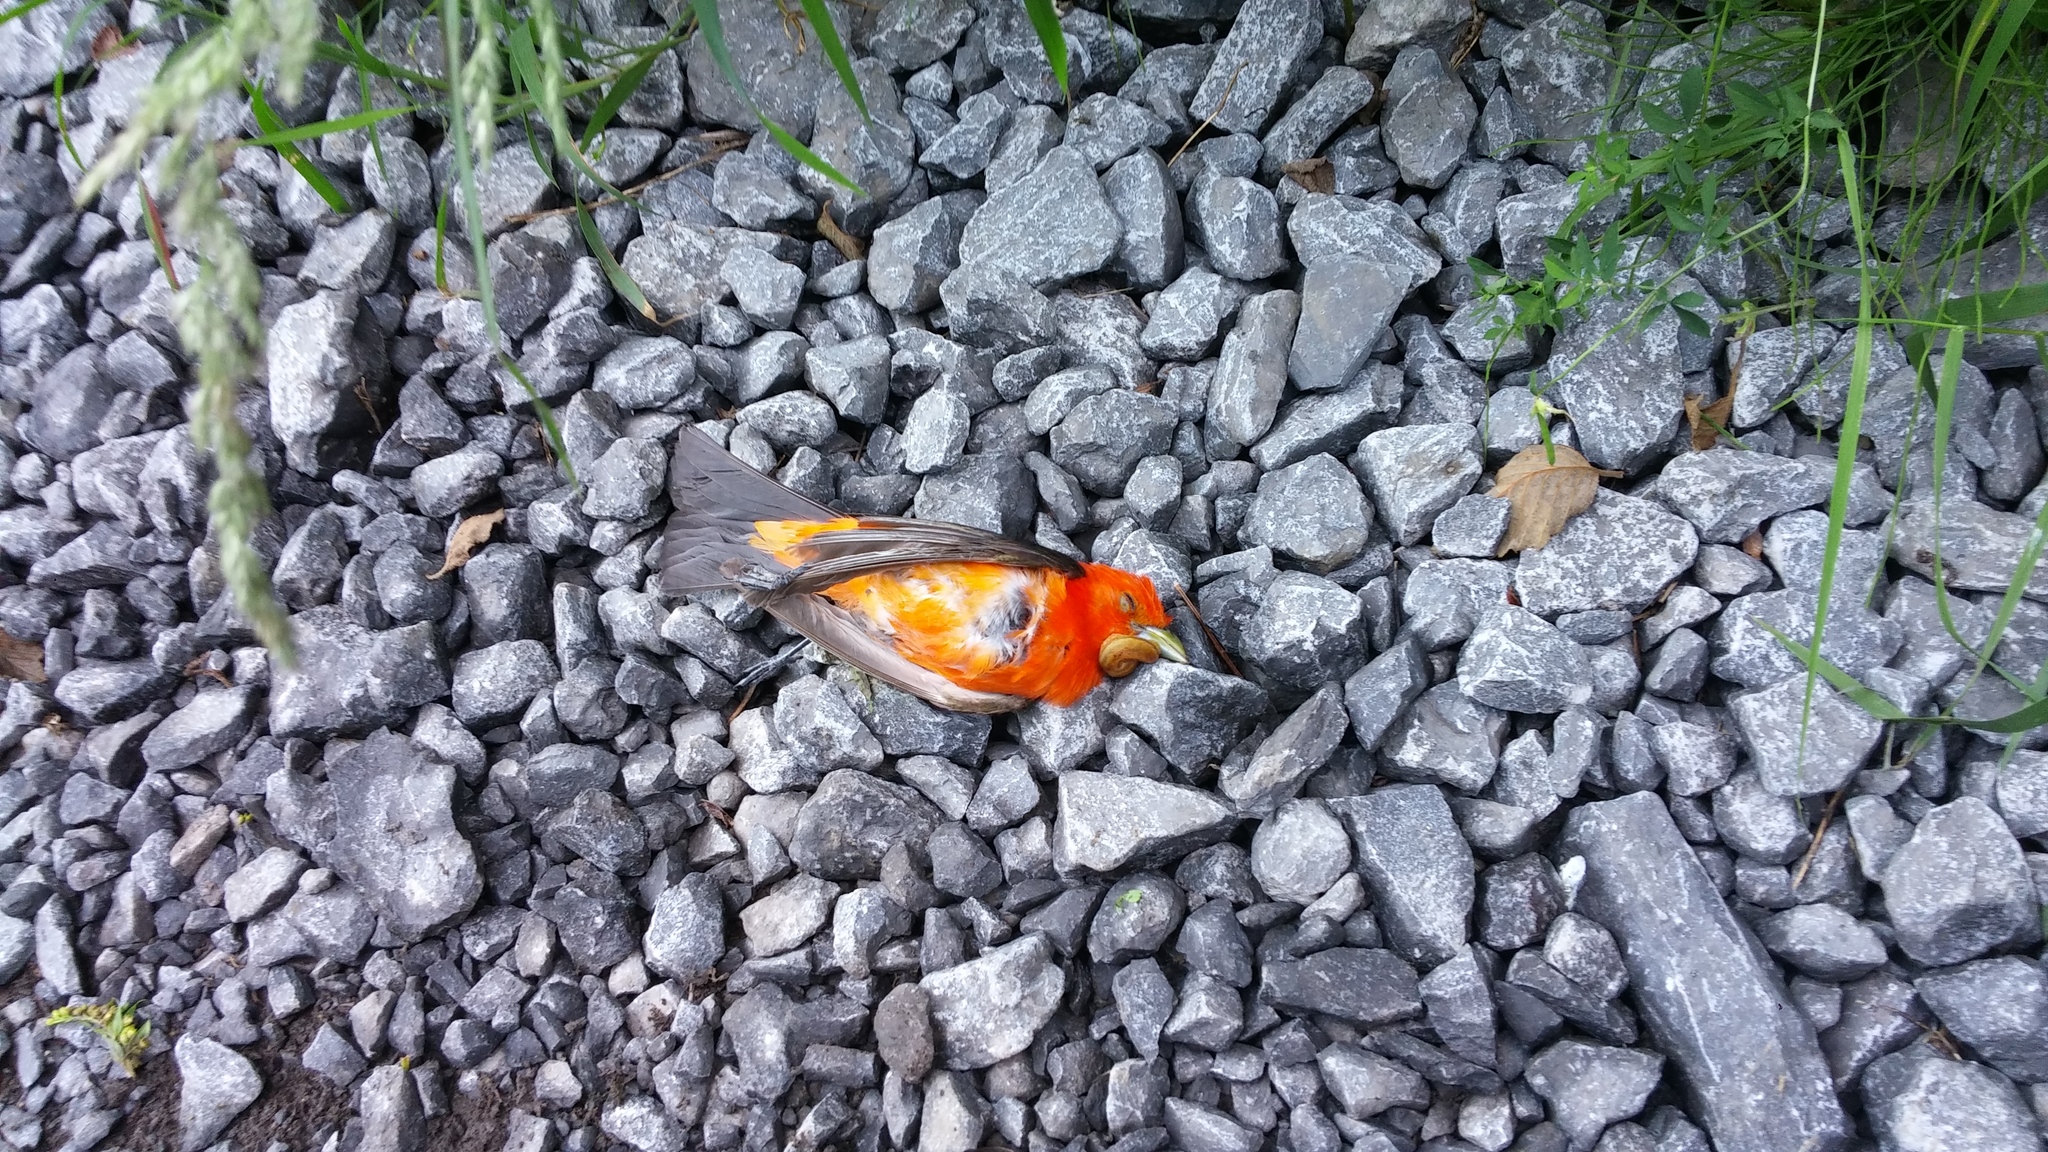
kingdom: Animalia
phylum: Chordata
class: Aves
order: Passeriformes
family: Cardinalidae
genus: Piranga
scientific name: Piranga olivacea
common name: Scarlet tanager
